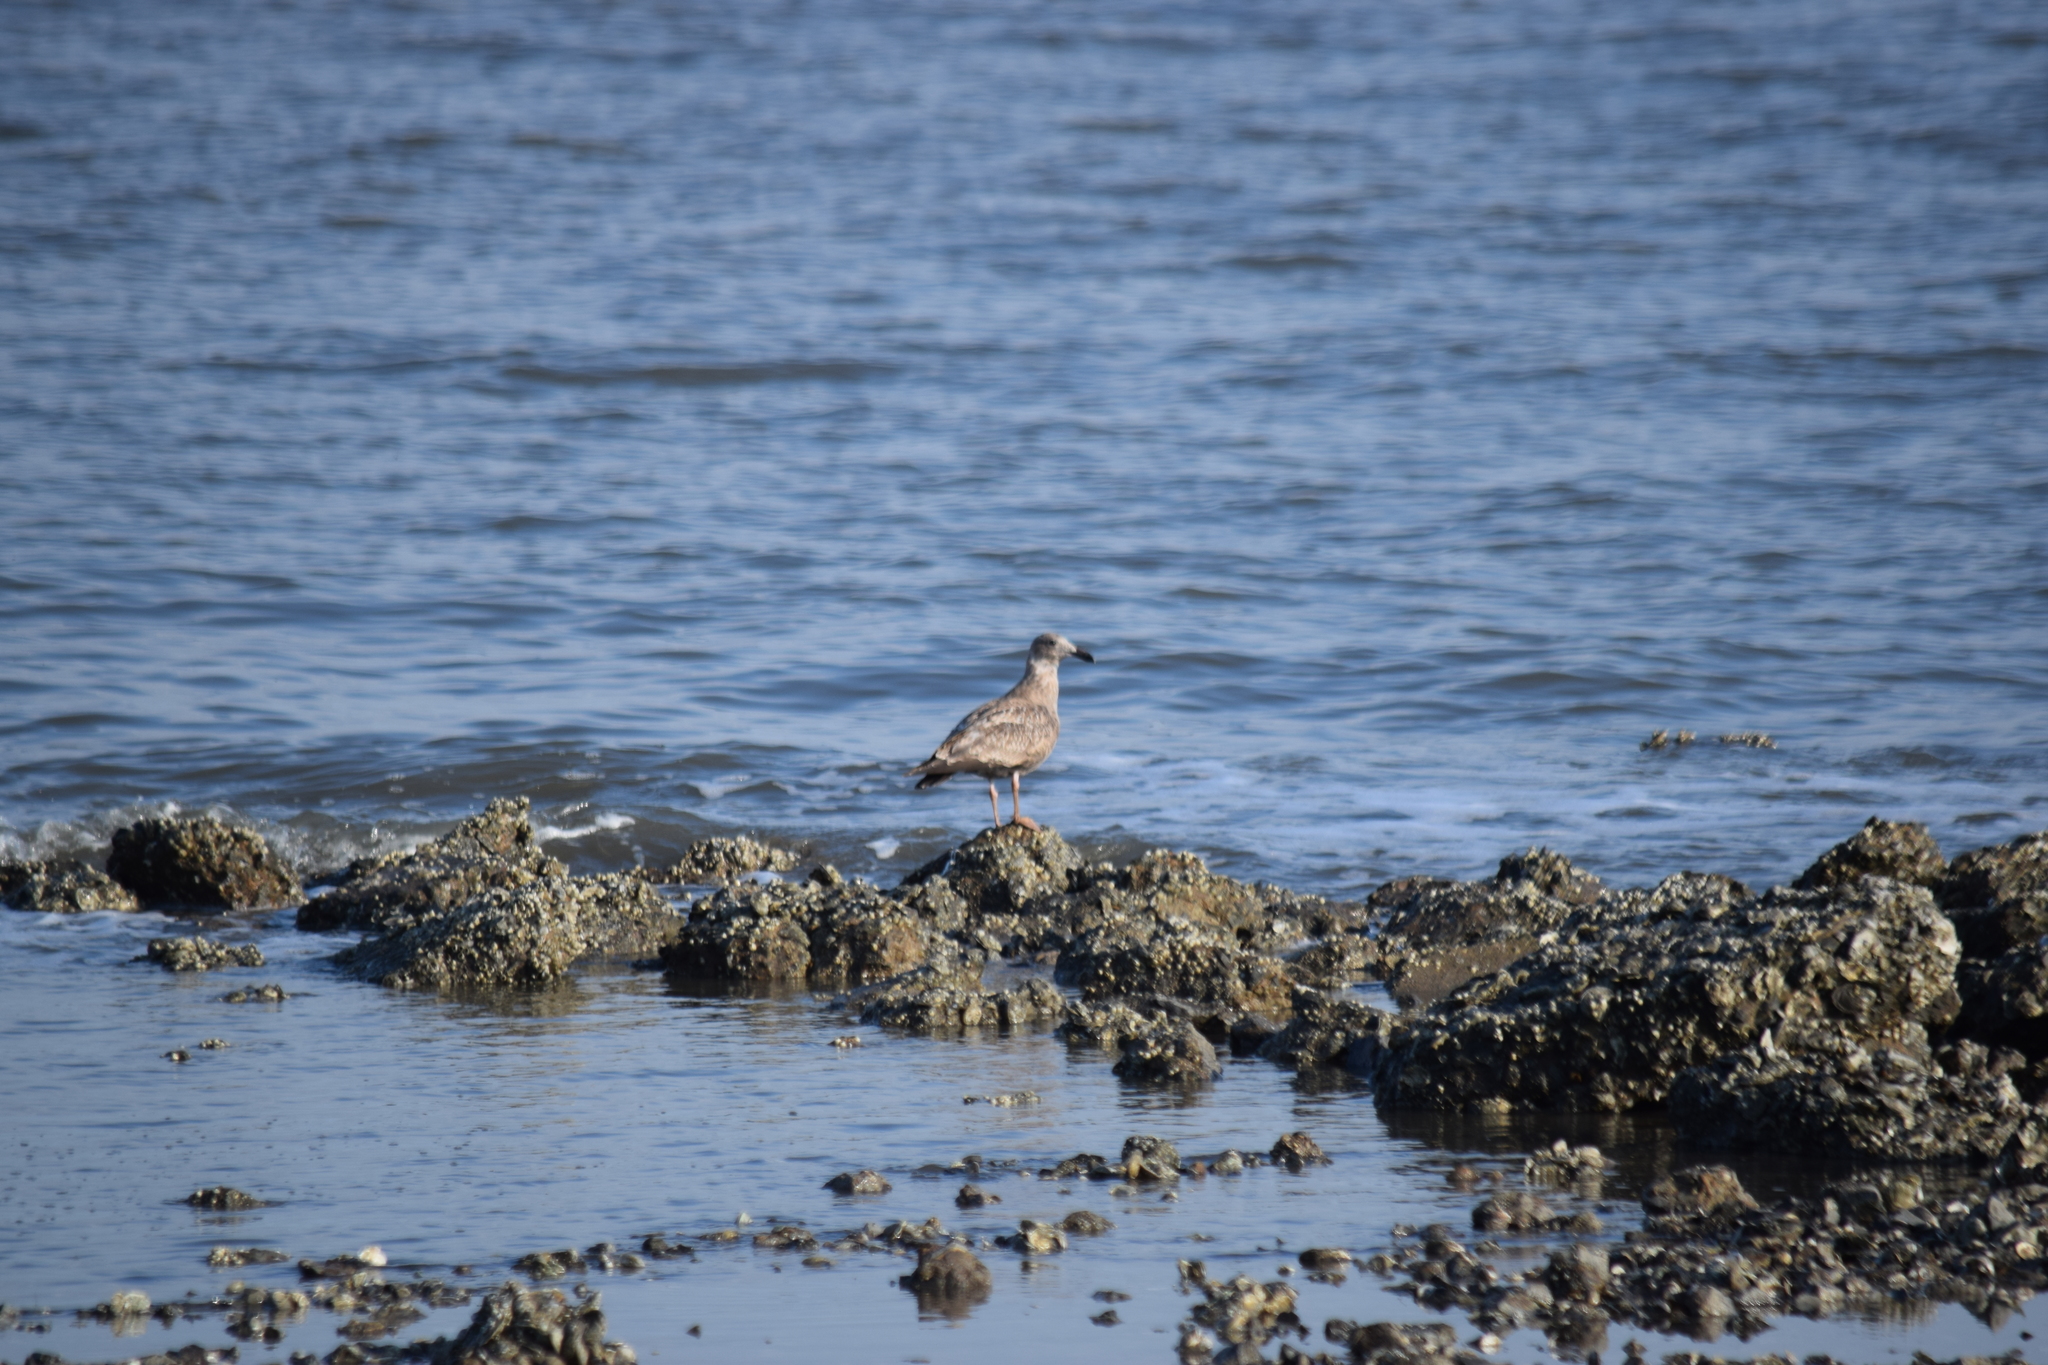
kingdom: Animalia
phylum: Chordata
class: Aves
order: Charadriiformes
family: Laridae
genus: Larus
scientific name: Larus argentatus
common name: Herring gull
